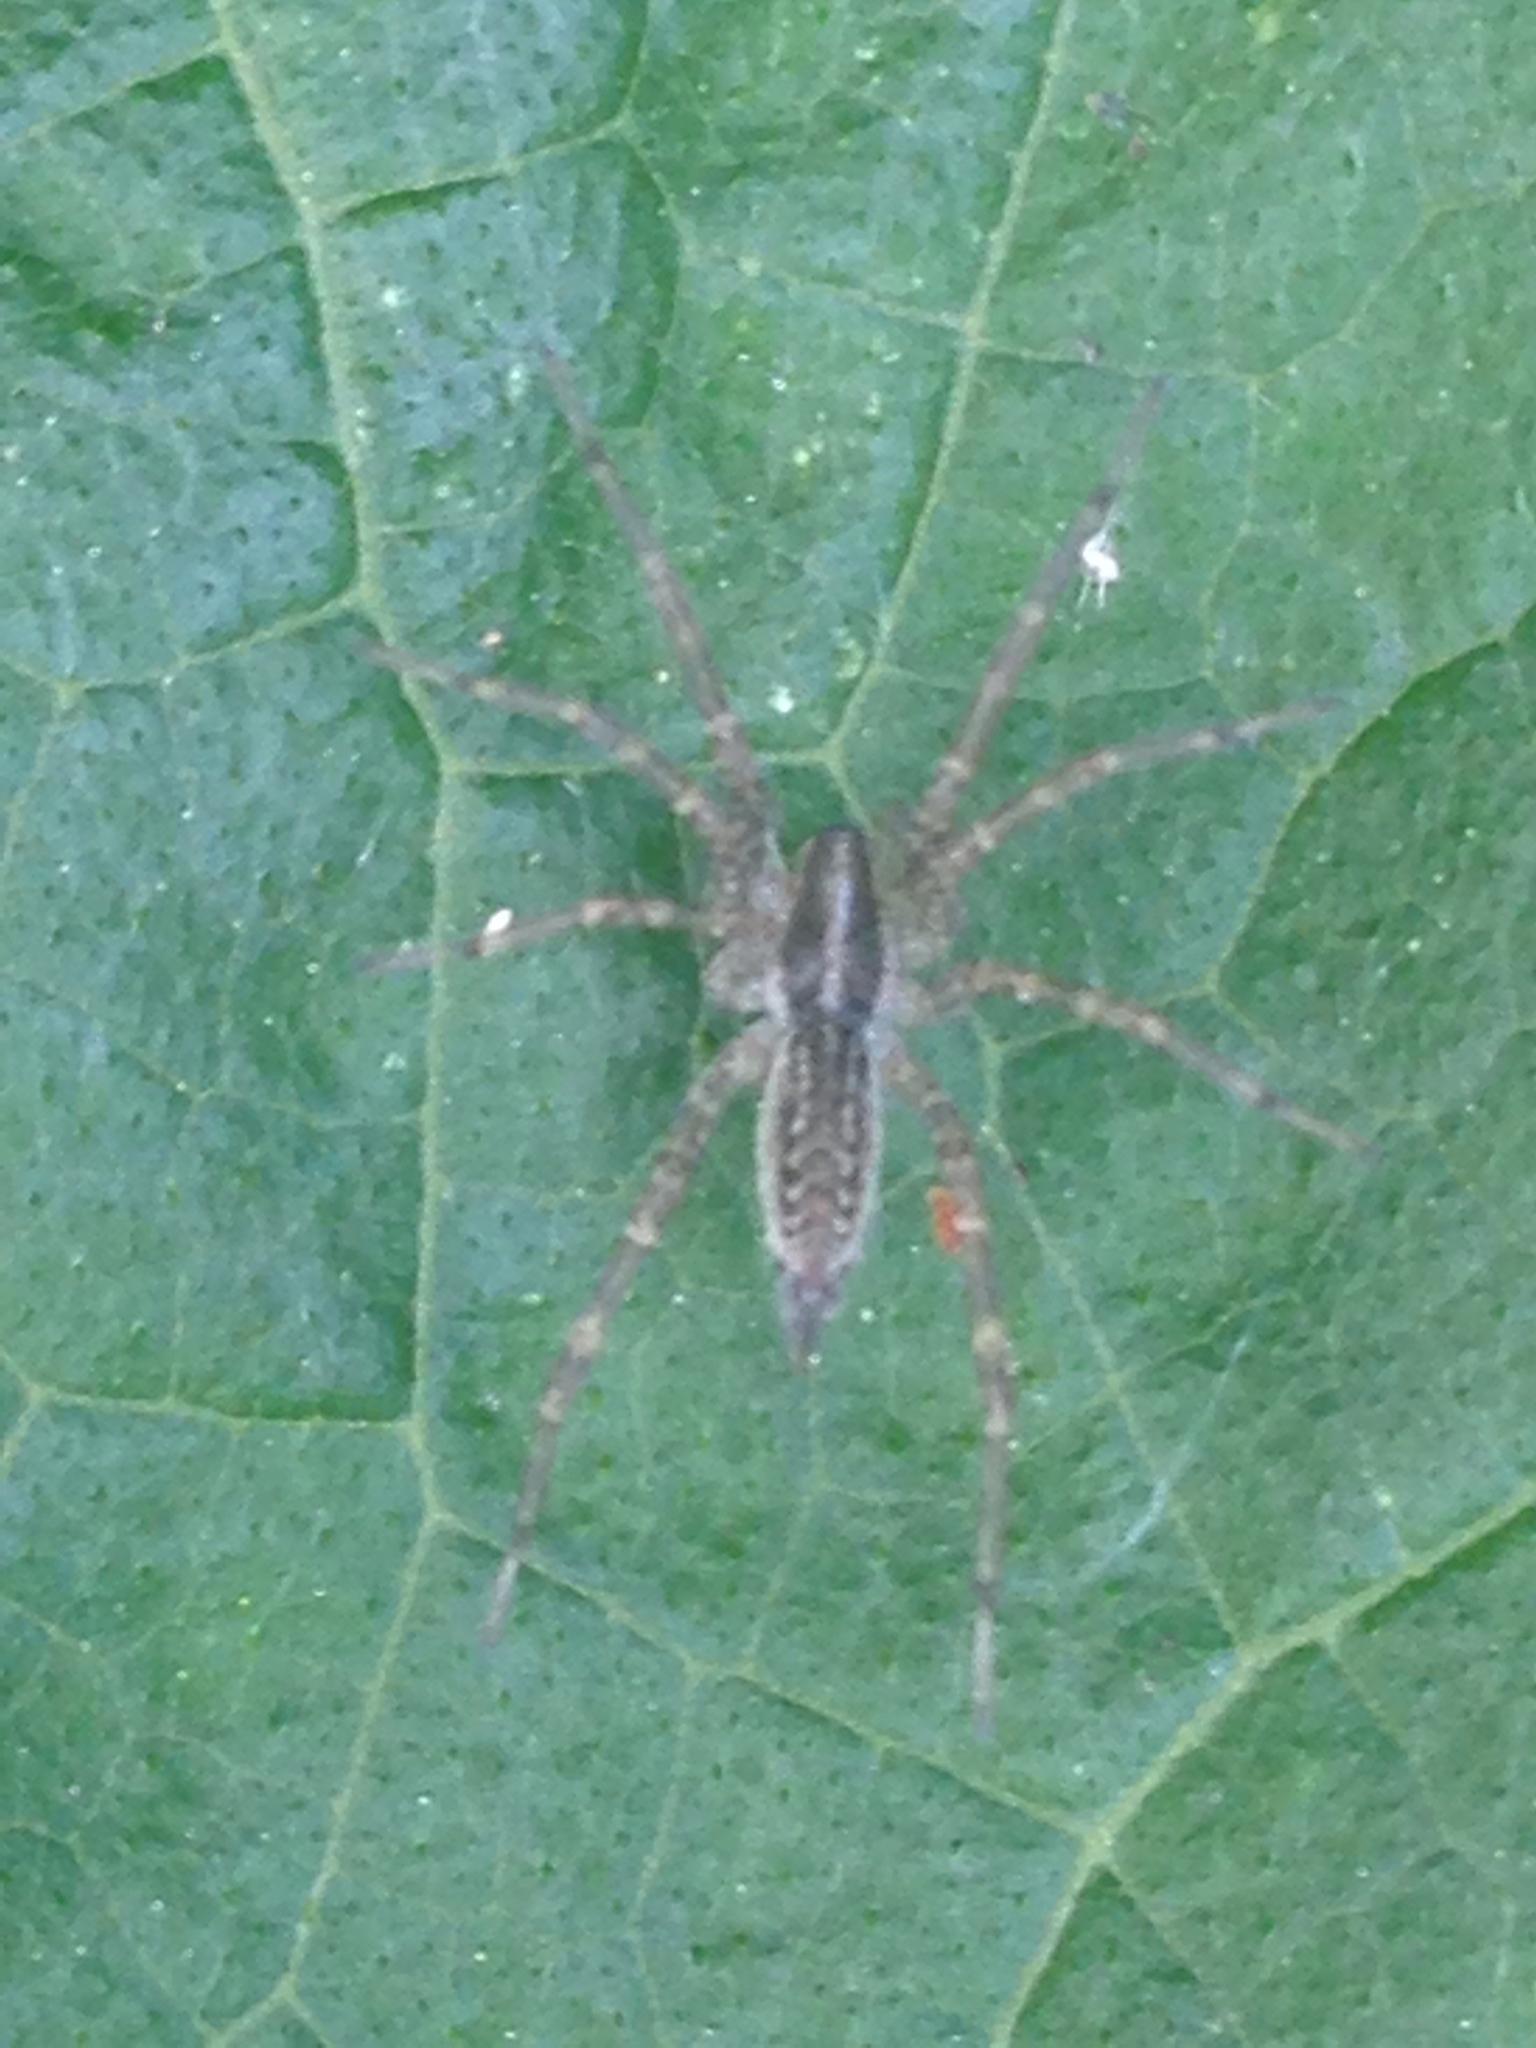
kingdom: Animalia
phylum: Arthropoda
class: Arachnida
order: Araneae
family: Agelenidae
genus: Agelenopsis
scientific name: Agelenopsis
